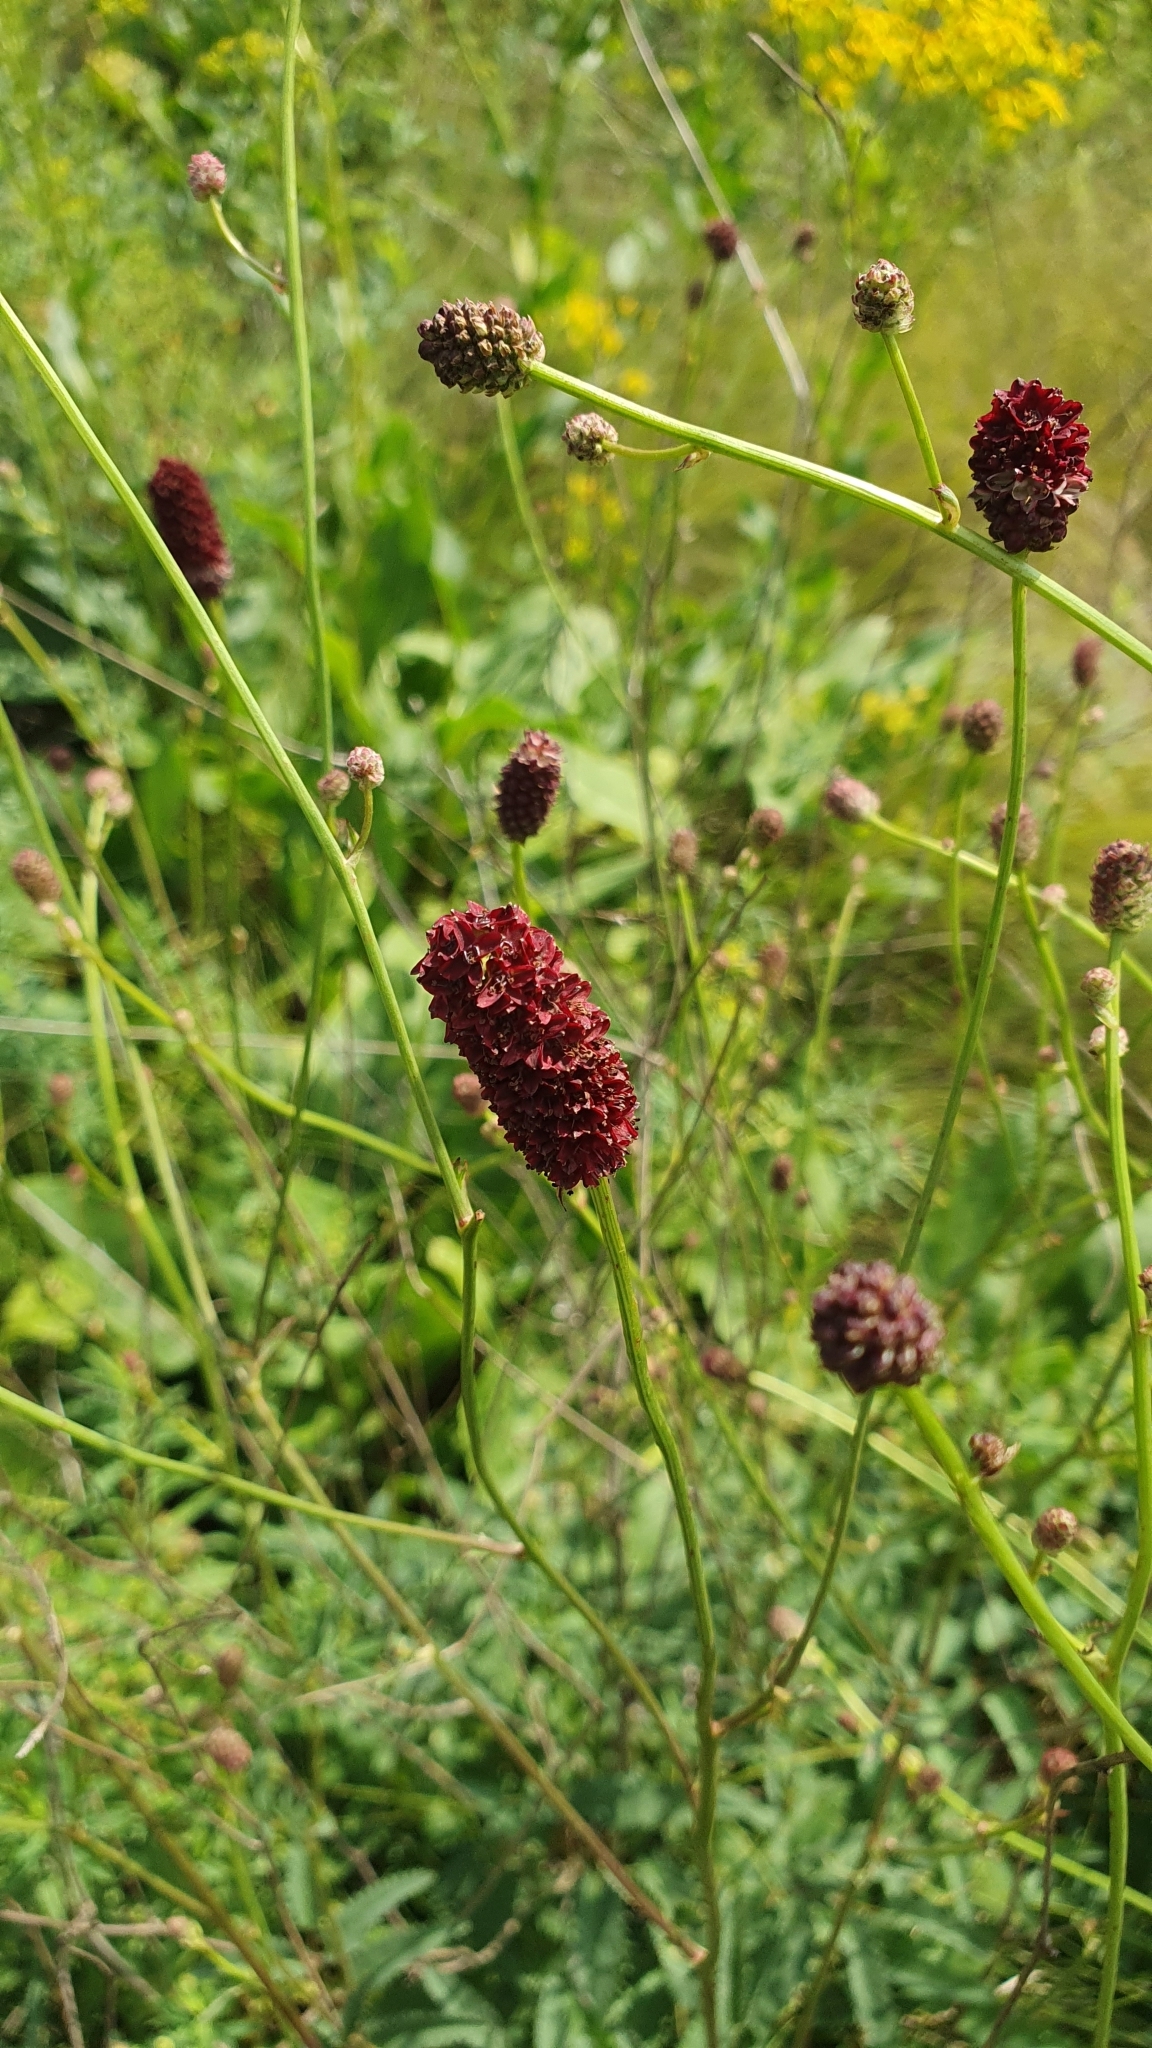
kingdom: Plantae
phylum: Tracheophyta
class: Magnoliopsida
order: Rosales
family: Rosaceae
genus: Sanguisorba
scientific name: Sanguisorba officinalis
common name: Great burnet
